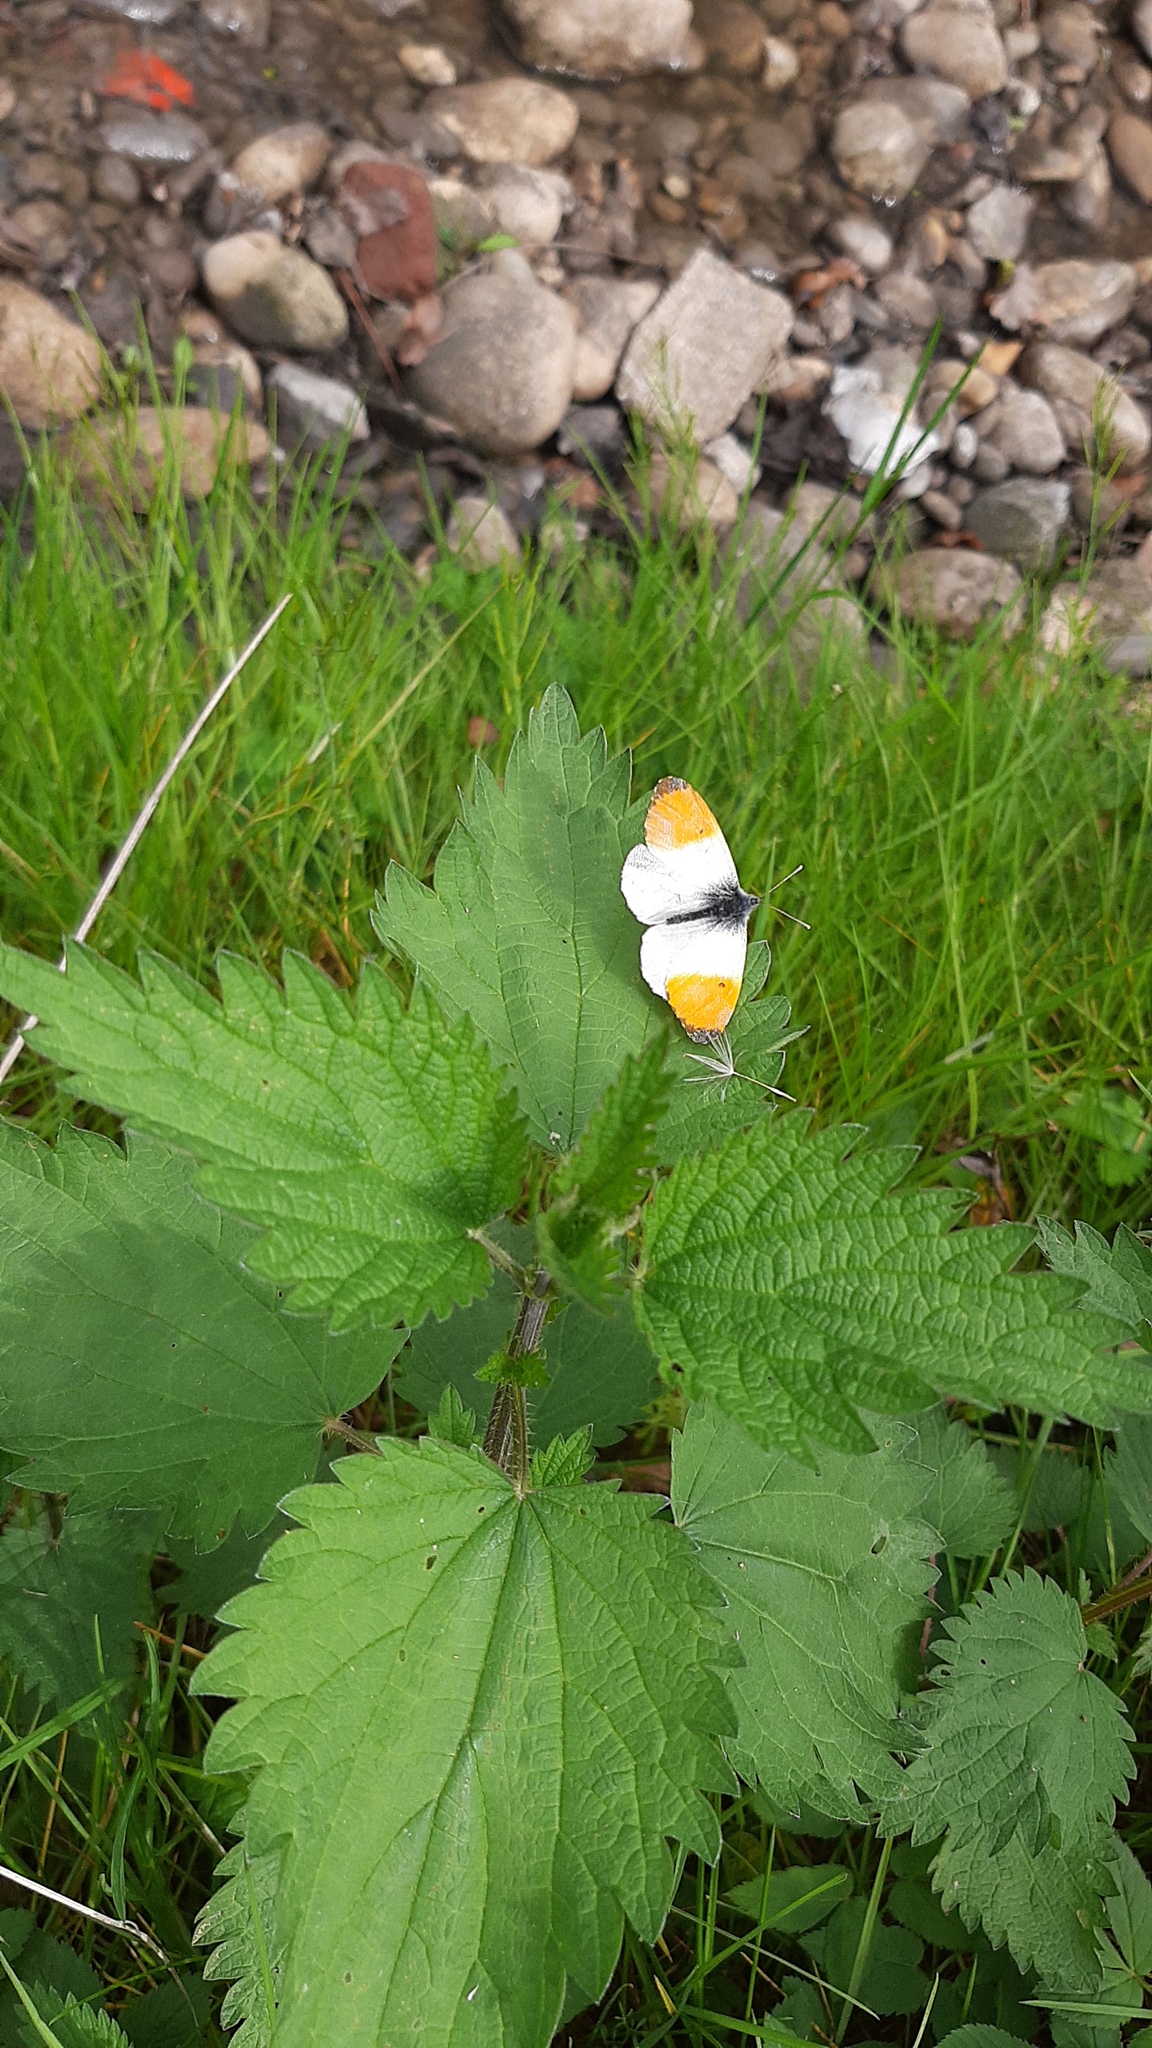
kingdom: Animalia
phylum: Arthropoda
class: Insecta
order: Lepidoptera
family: Pieridae
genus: Anthocharis
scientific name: Anthocharis cardamines
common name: Orange-tip
